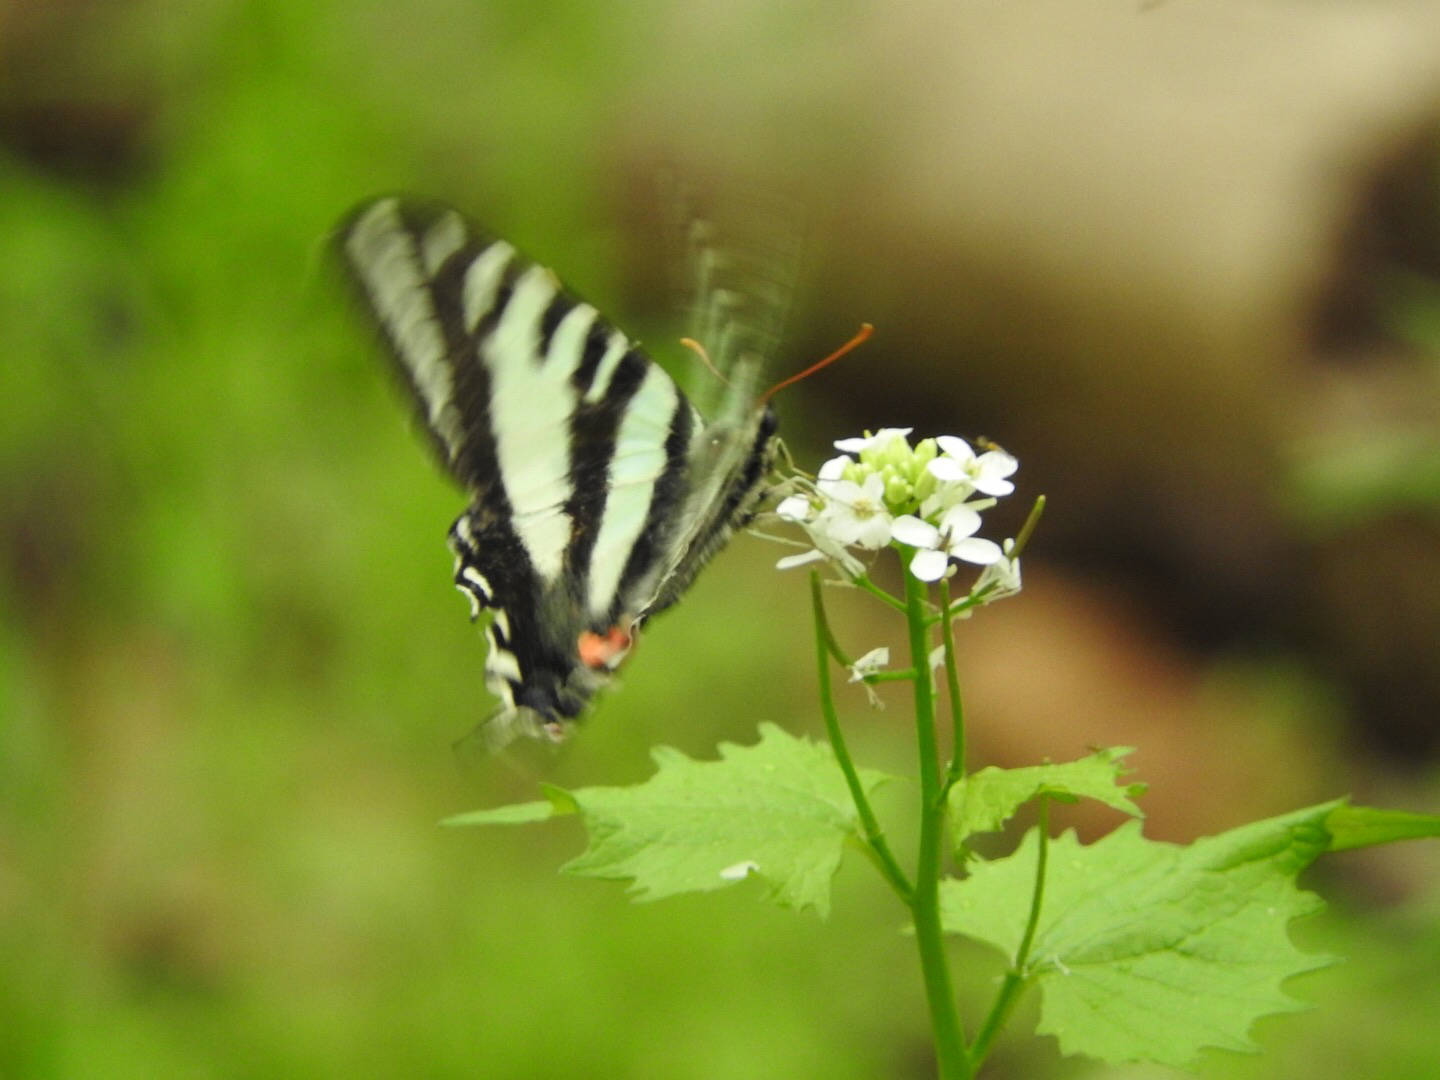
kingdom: Animalia
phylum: Arthropoda
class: Insecta
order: Lepidoptera
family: Papilionidae
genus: Protographium
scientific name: Protographium marcellus
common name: Zebra swallowtail
